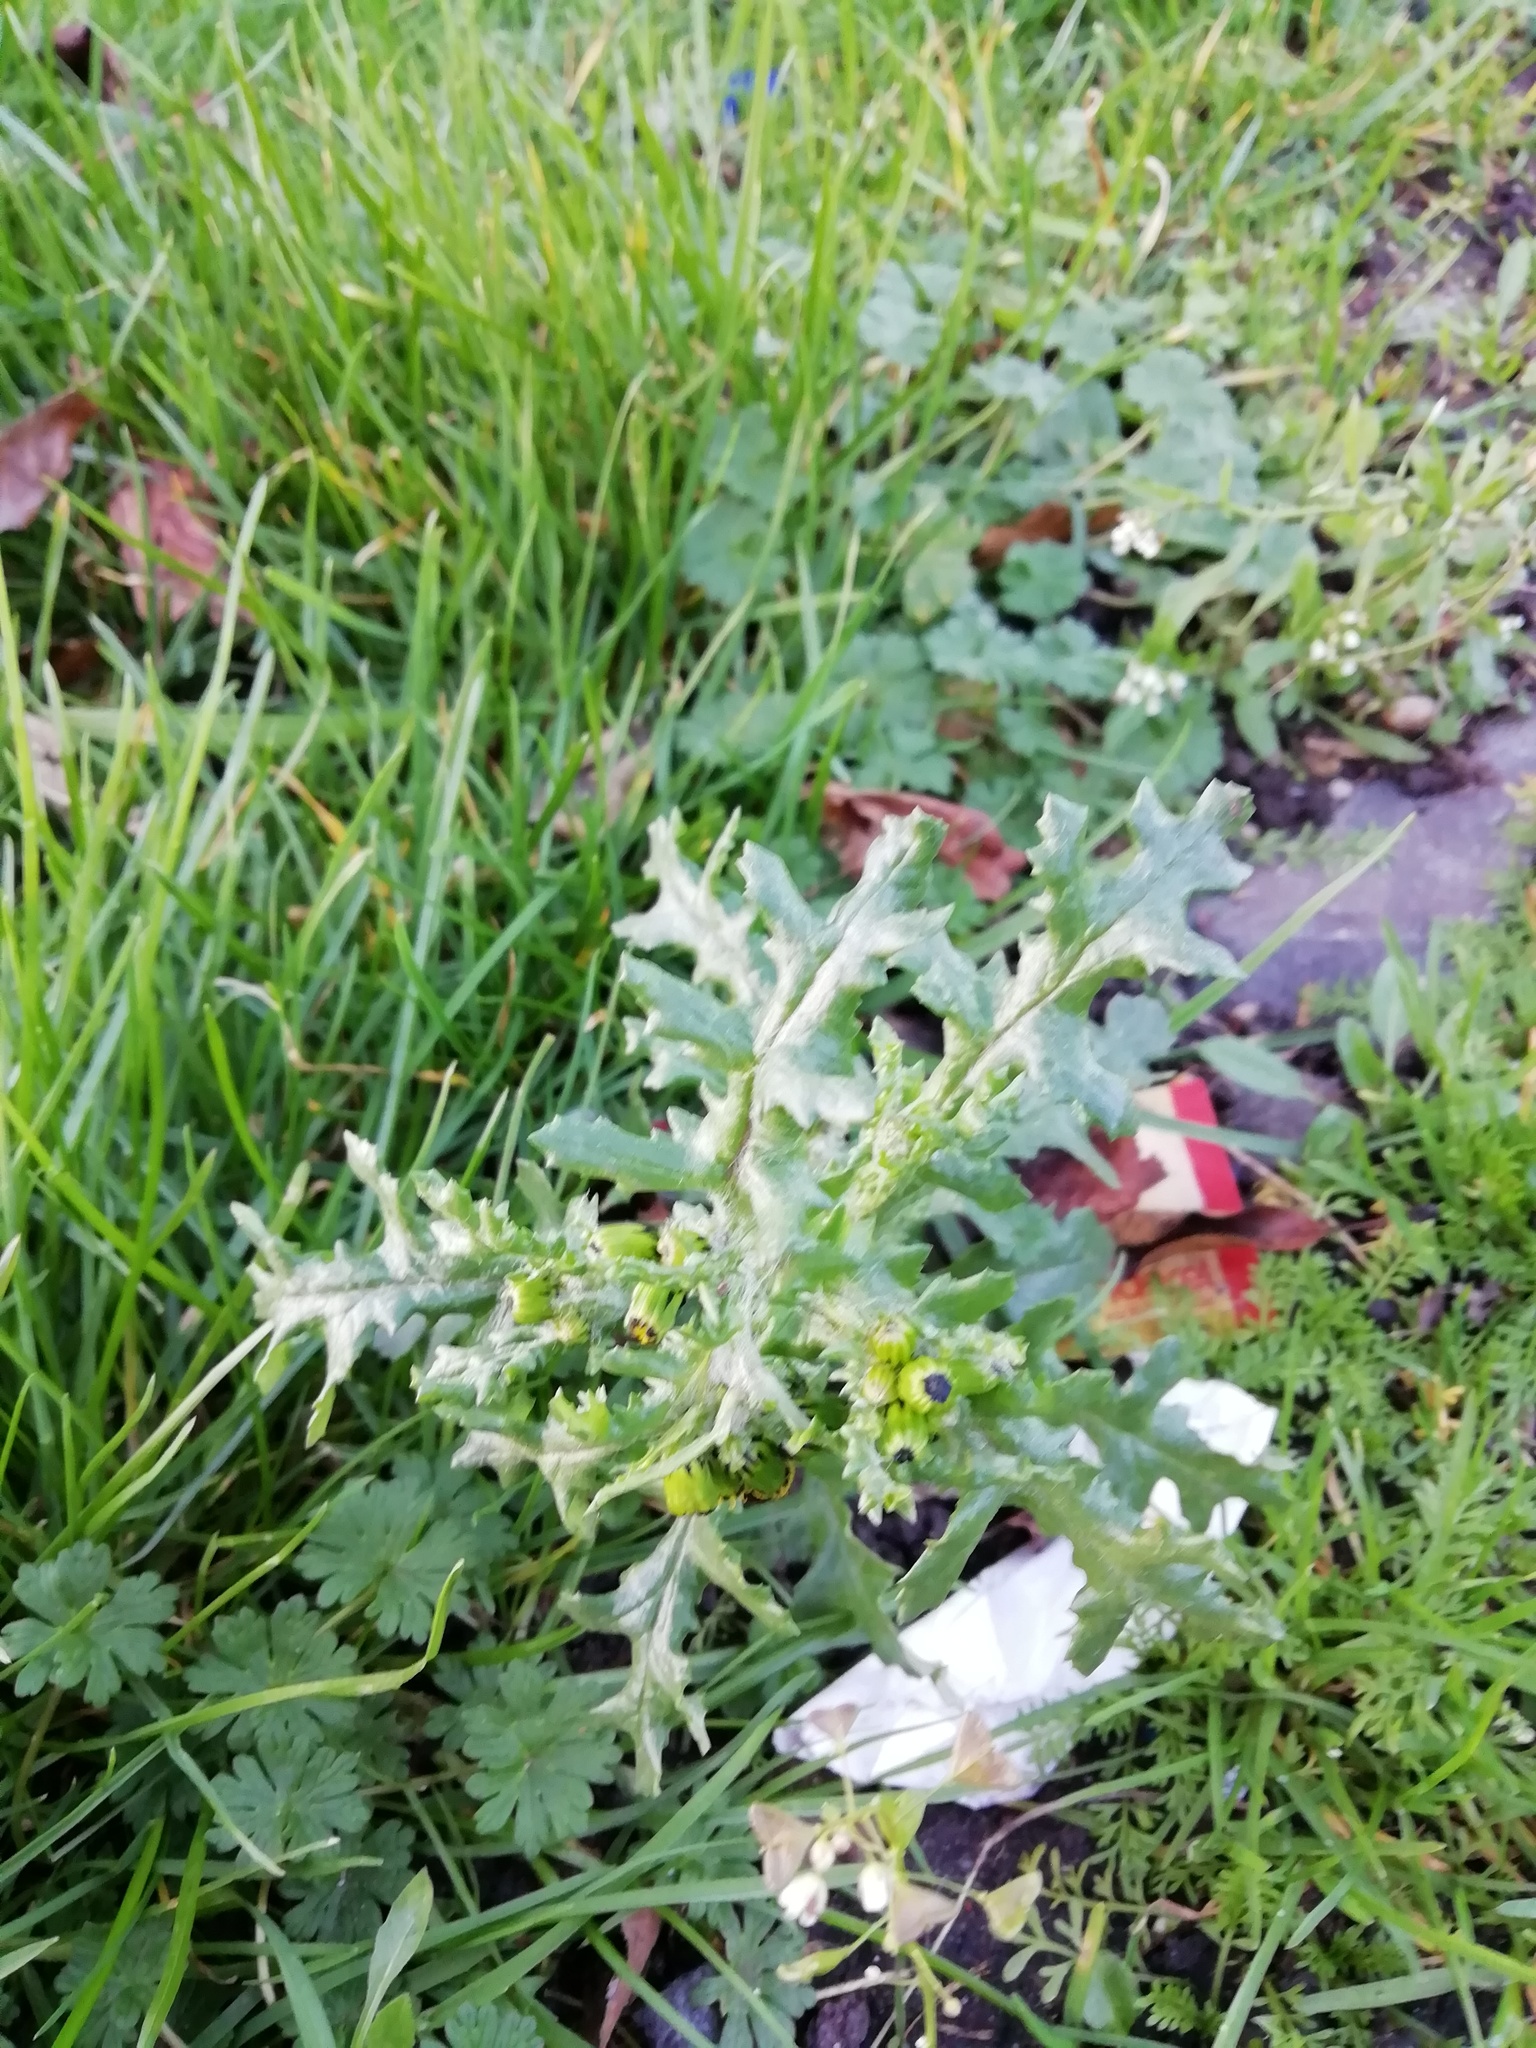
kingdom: Plantae
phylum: Tracheophyta
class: Magnoliopsida
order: Asterales
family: Asteraceae
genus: Senecio
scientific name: Senecio vulgaris
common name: Old-man-in-the-spring
